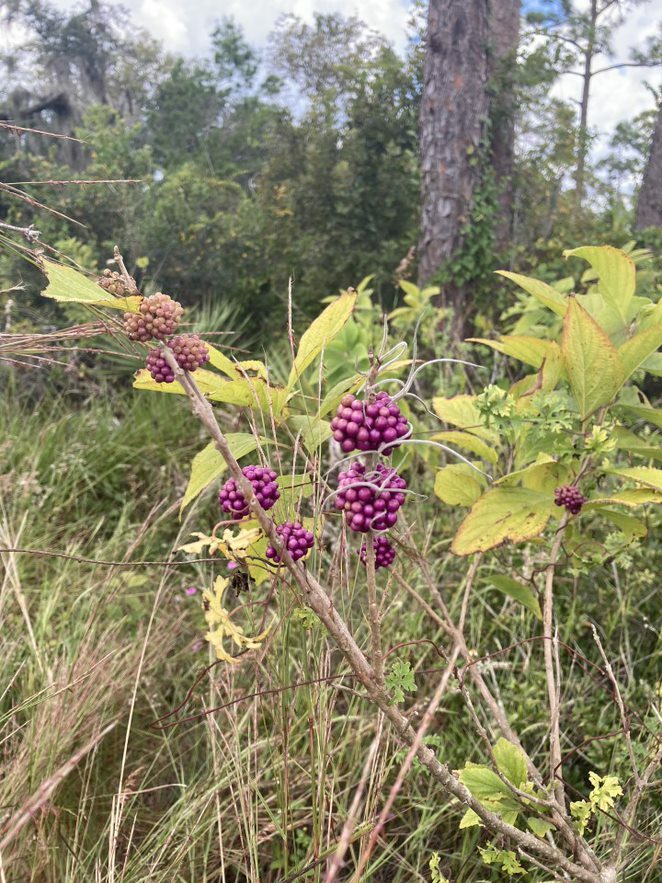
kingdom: Plantae
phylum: Tracheophyta
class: Magnoliopsida
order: Lamiales
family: Lamiaceae
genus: Callicarpa
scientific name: Callicarpa americana
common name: American beautyberry
